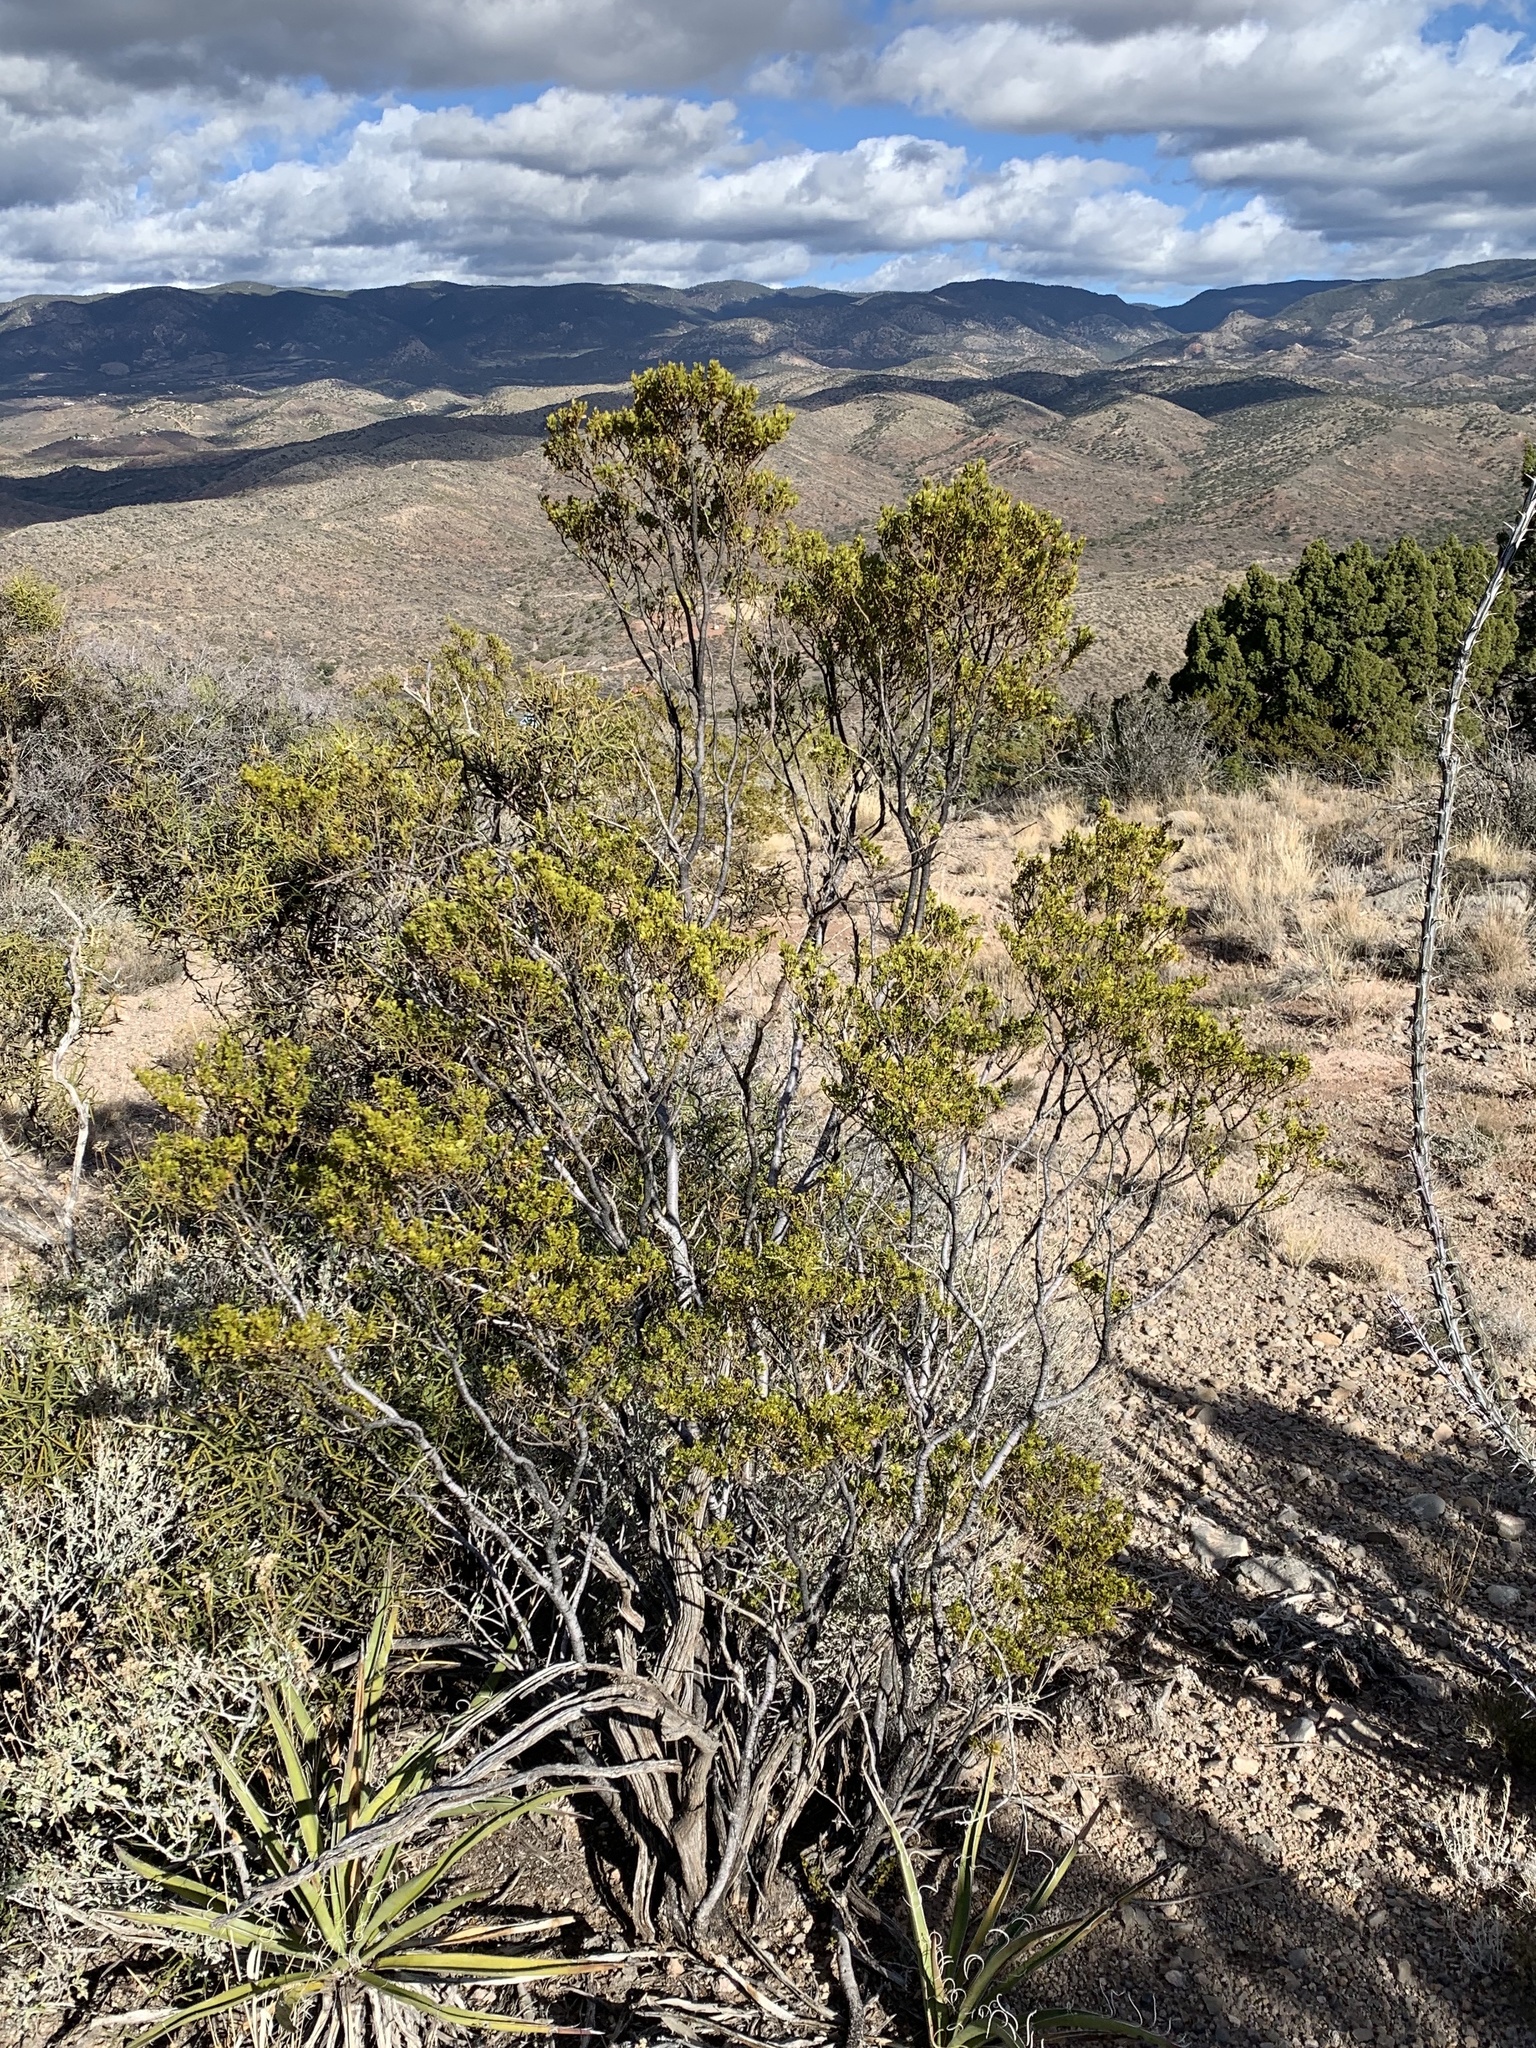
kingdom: Plantae
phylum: Tracheophyta
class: Magnoliopsida
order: Zygophyllales
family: Zygophyllaceae
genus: Larrea
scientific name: Larrea tridentata
